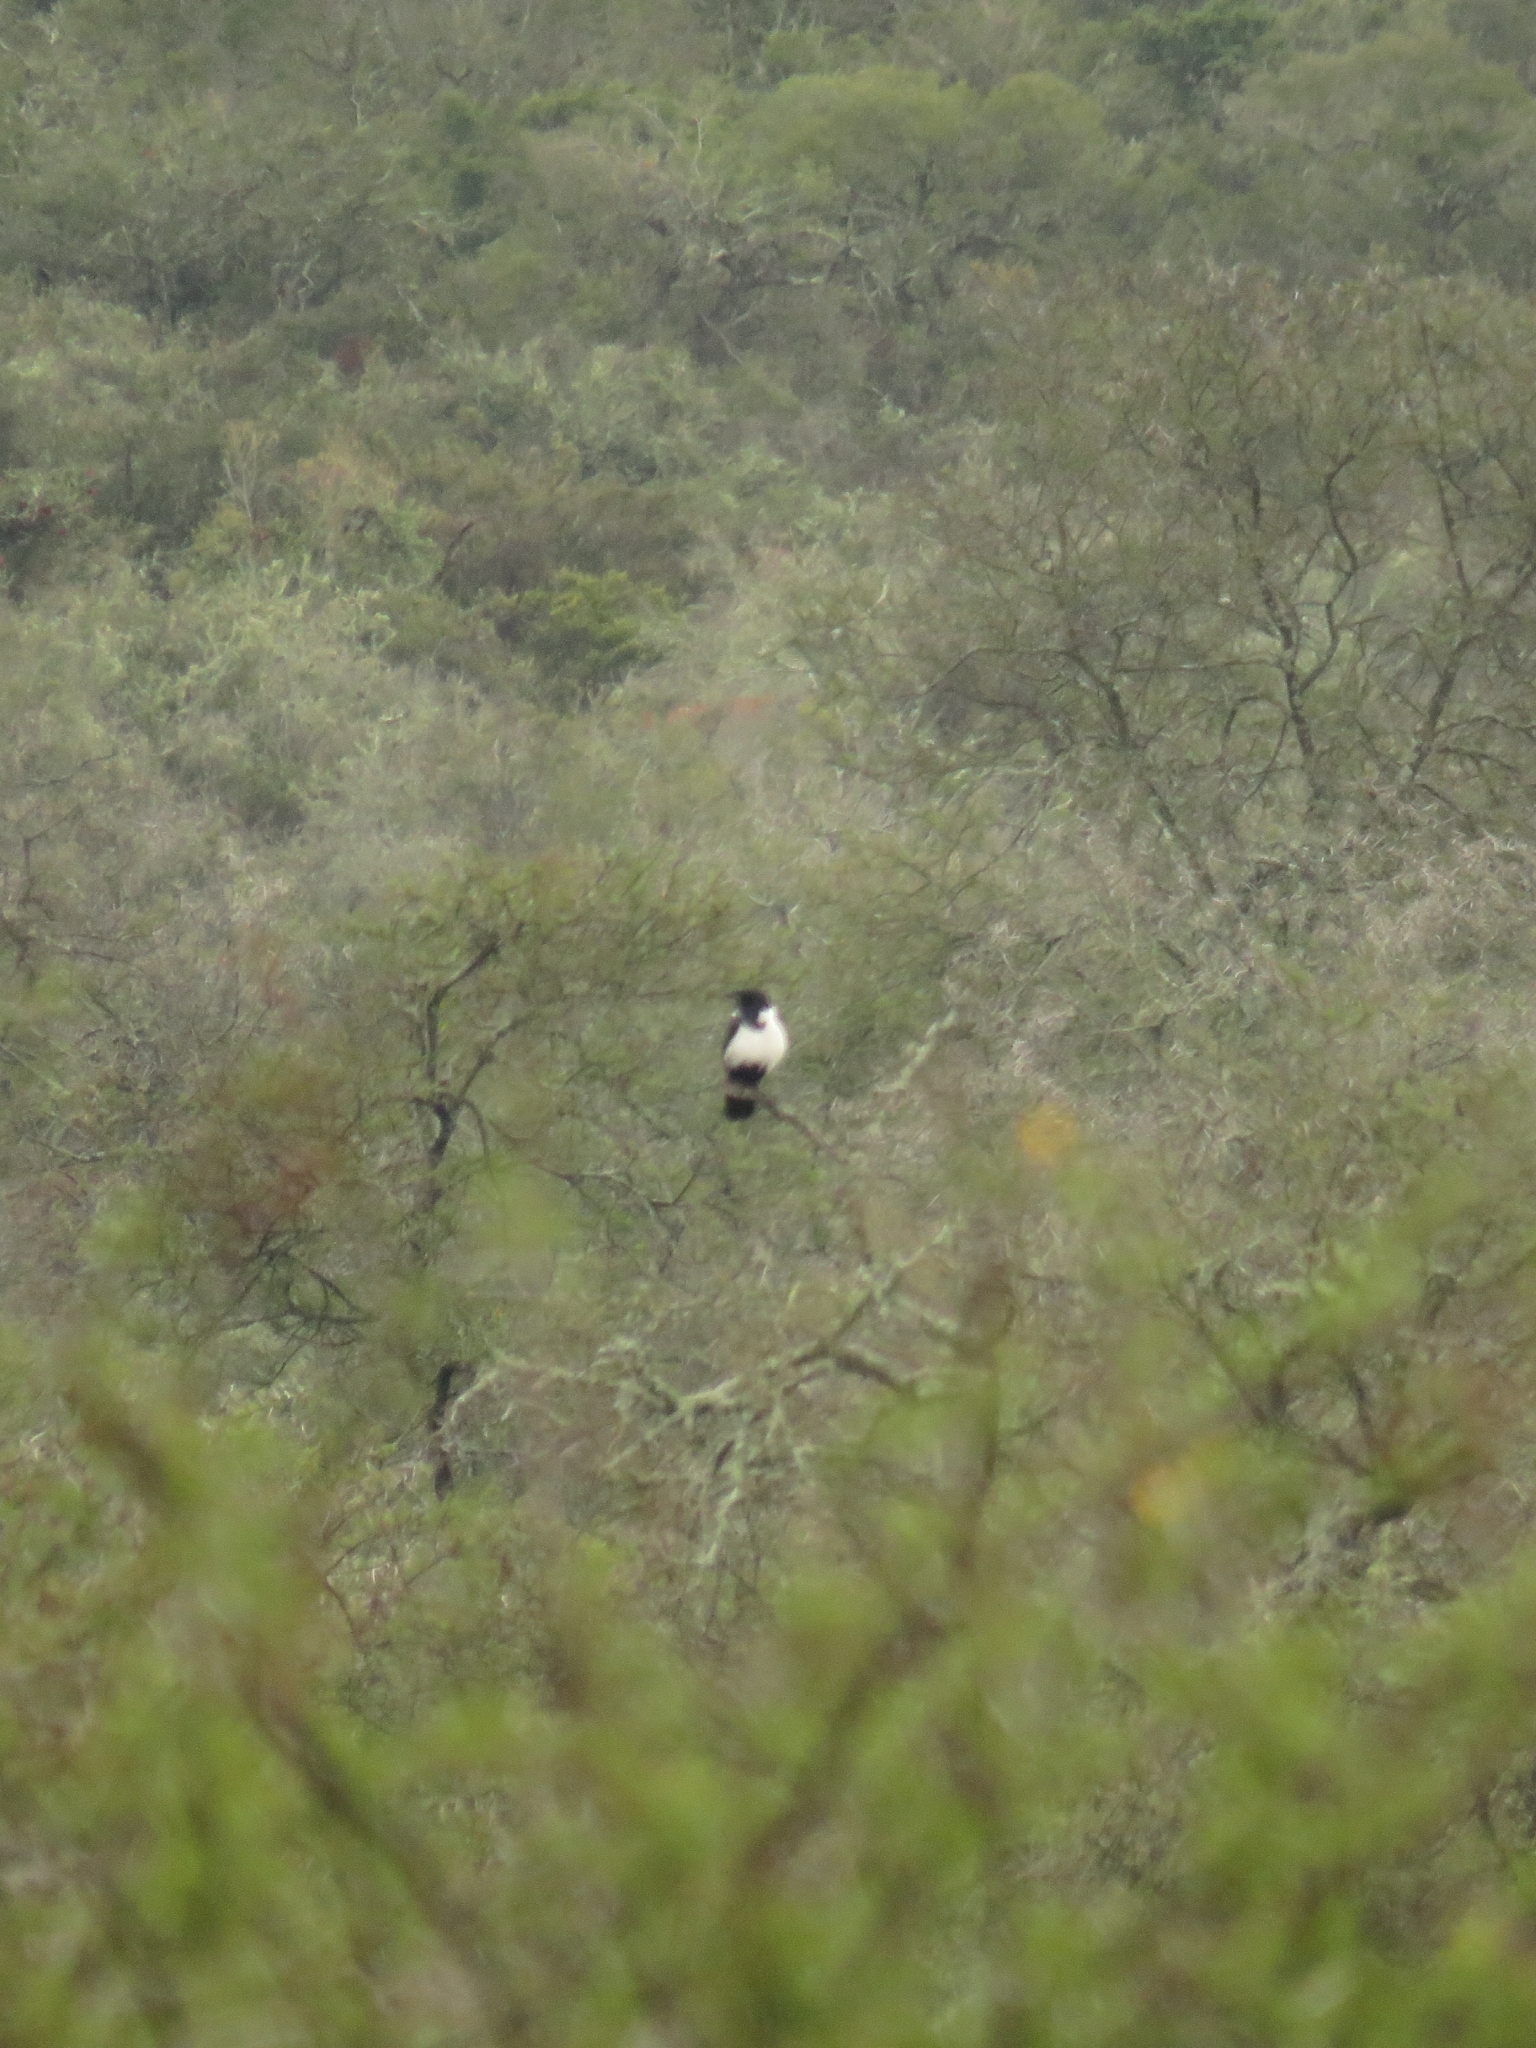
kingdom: Animalia
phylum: Chordata
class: Aves
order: Passeriformes
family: Corvidae
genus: Corvus
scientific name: Corvus albus
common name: Pied crow
